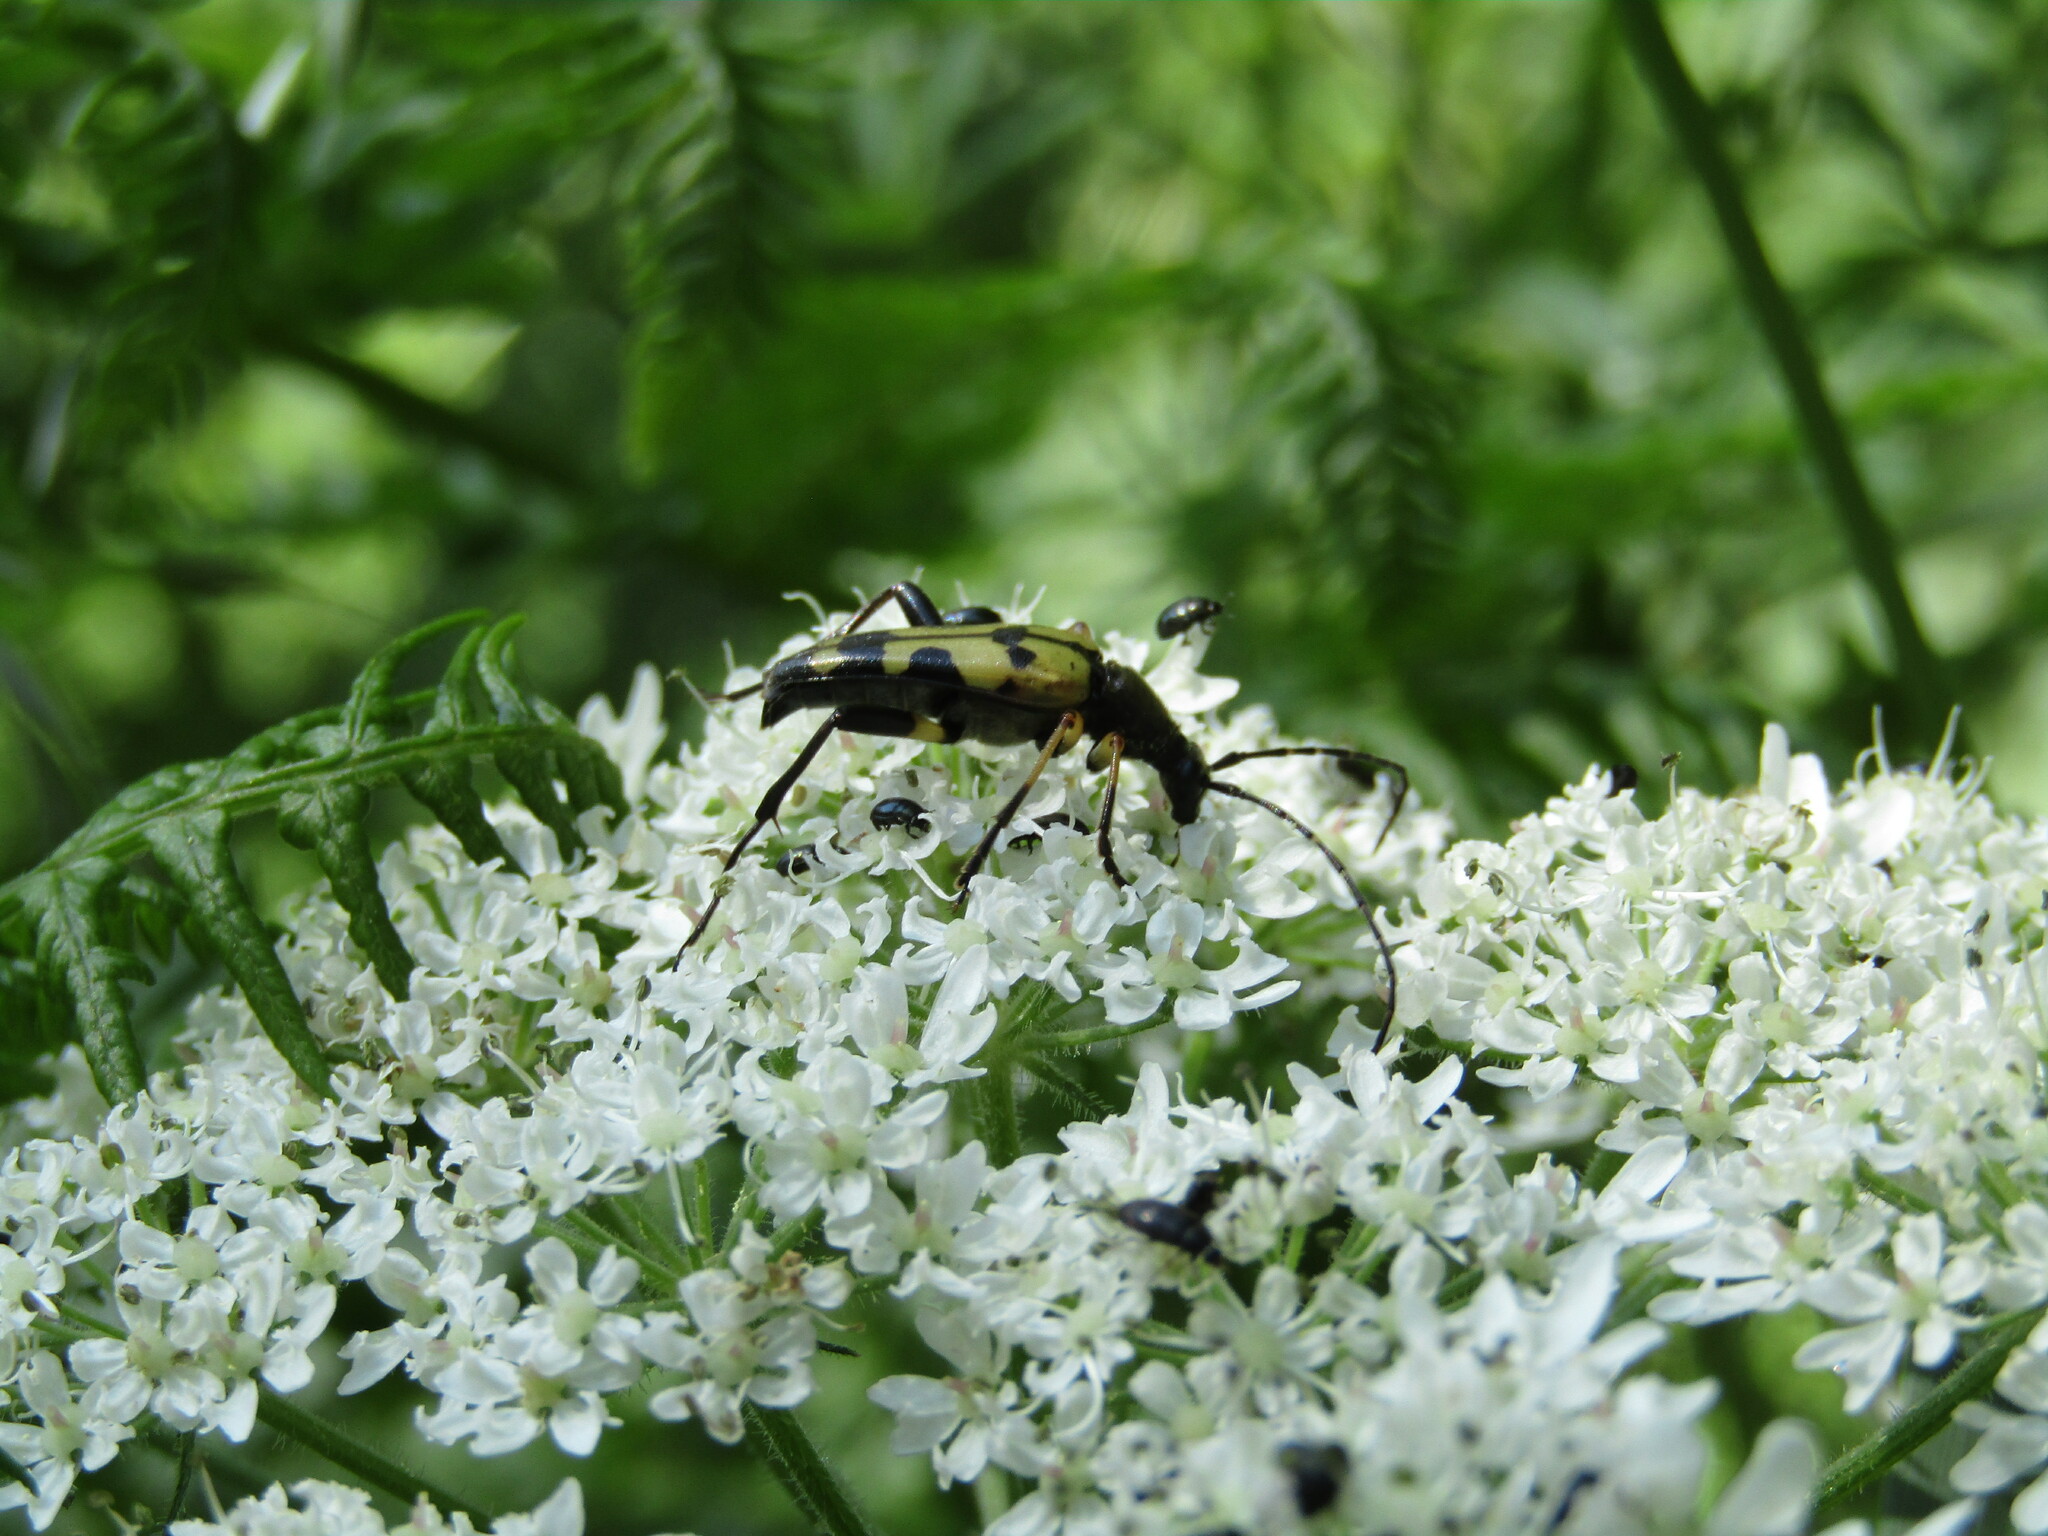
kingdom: Animalia
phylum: Arthropoda
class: Insecta
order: Coleoptera
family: Cerambycidae
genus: Rutpela
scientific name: Rutpela maculata
